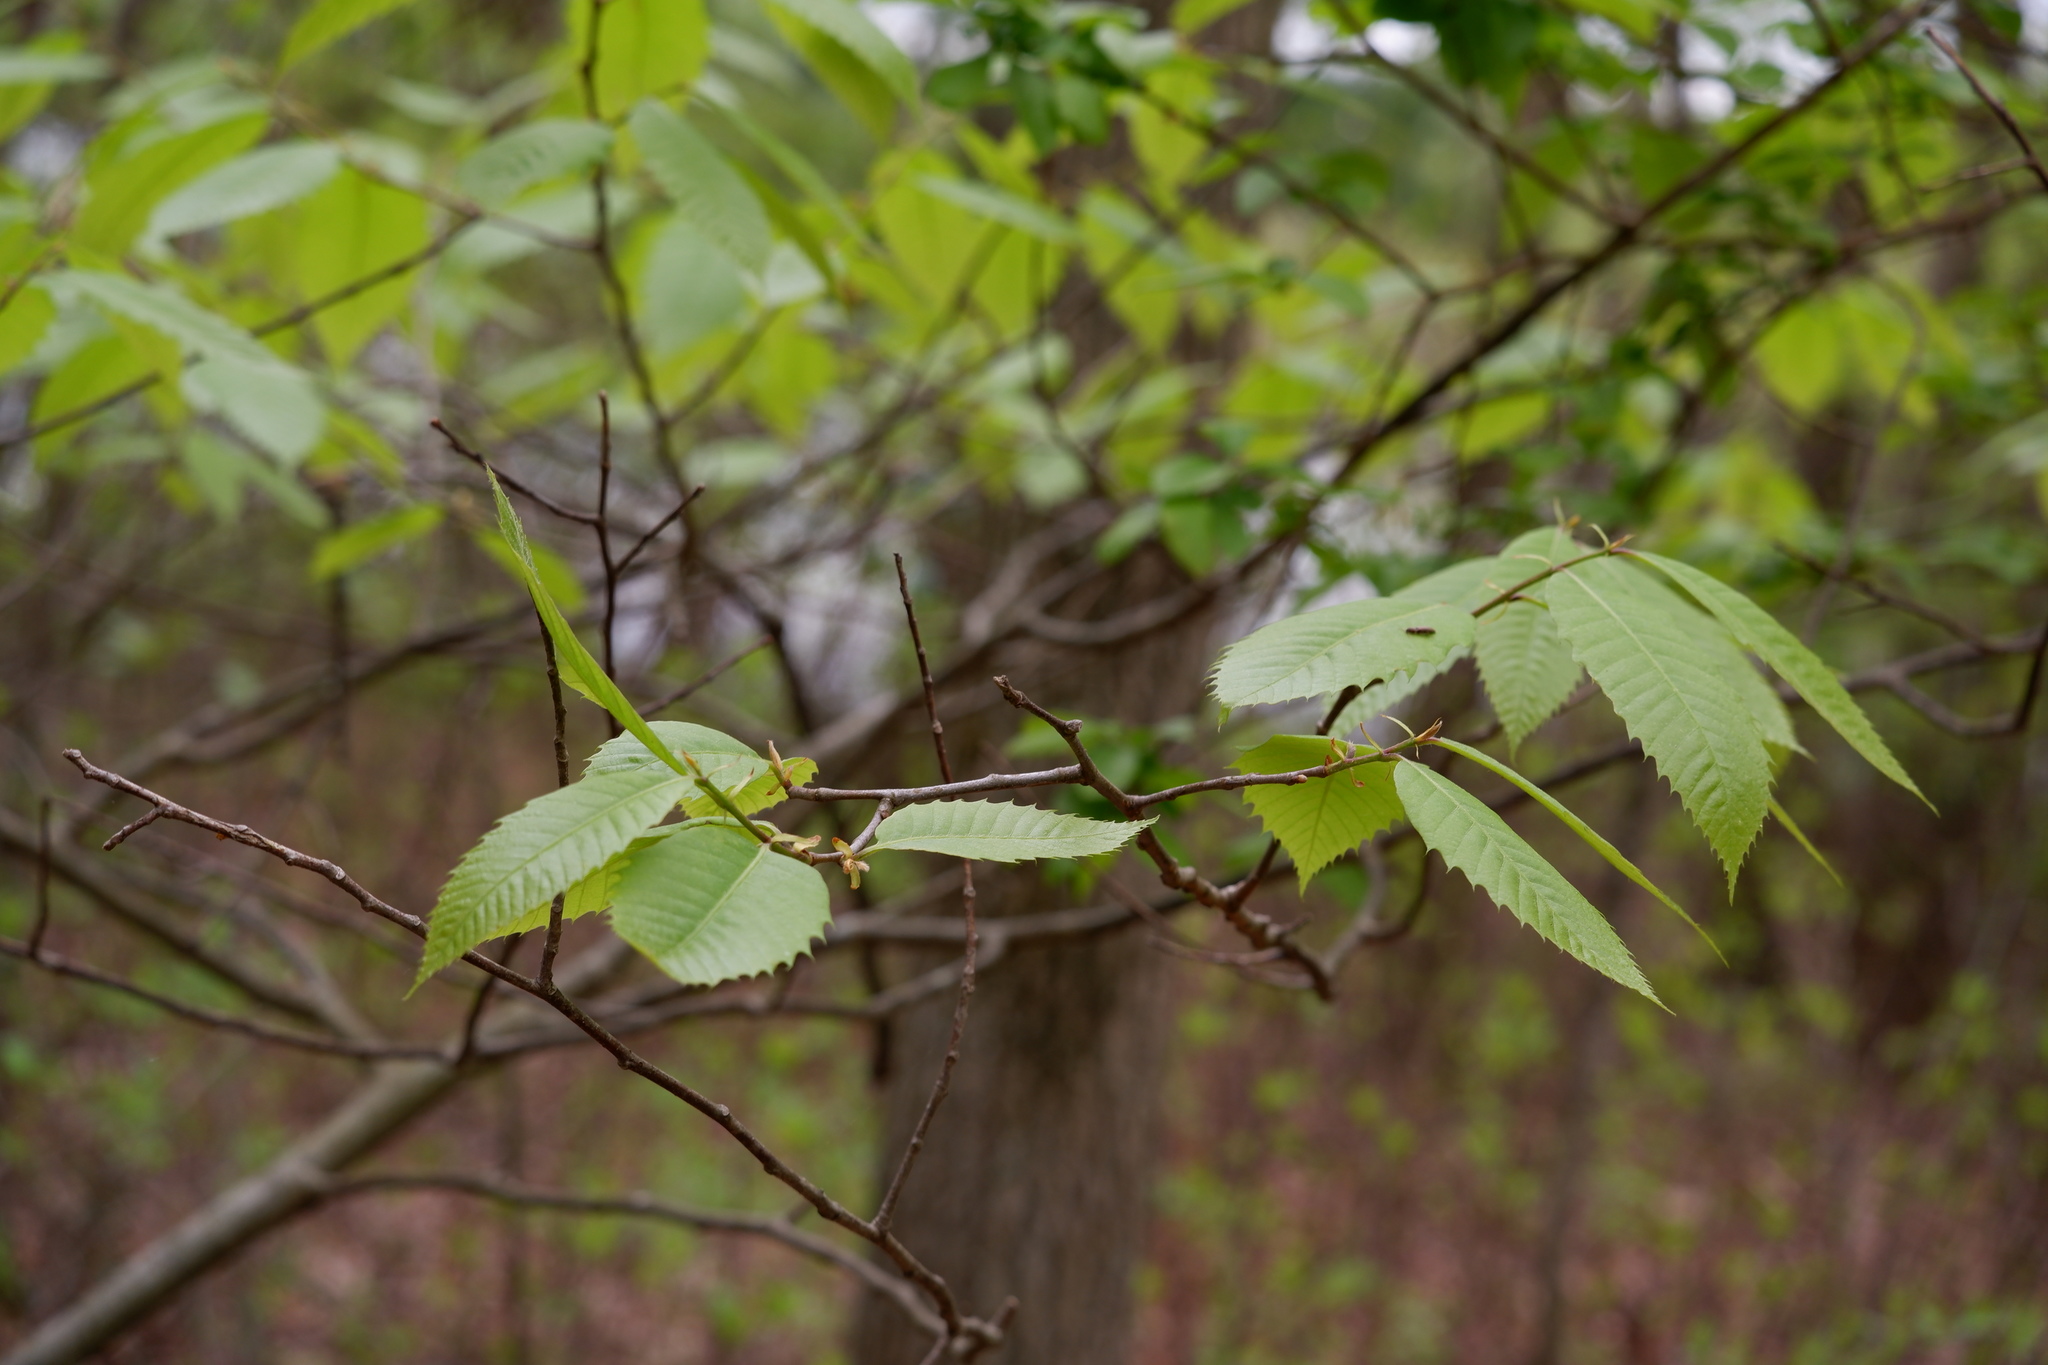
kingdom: Plantae
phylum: Tracheophyta
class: Magnoliopsida
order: Fagales
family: Fagaceae
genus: Castanea
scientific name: Castanea dentata
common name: American chestnut
